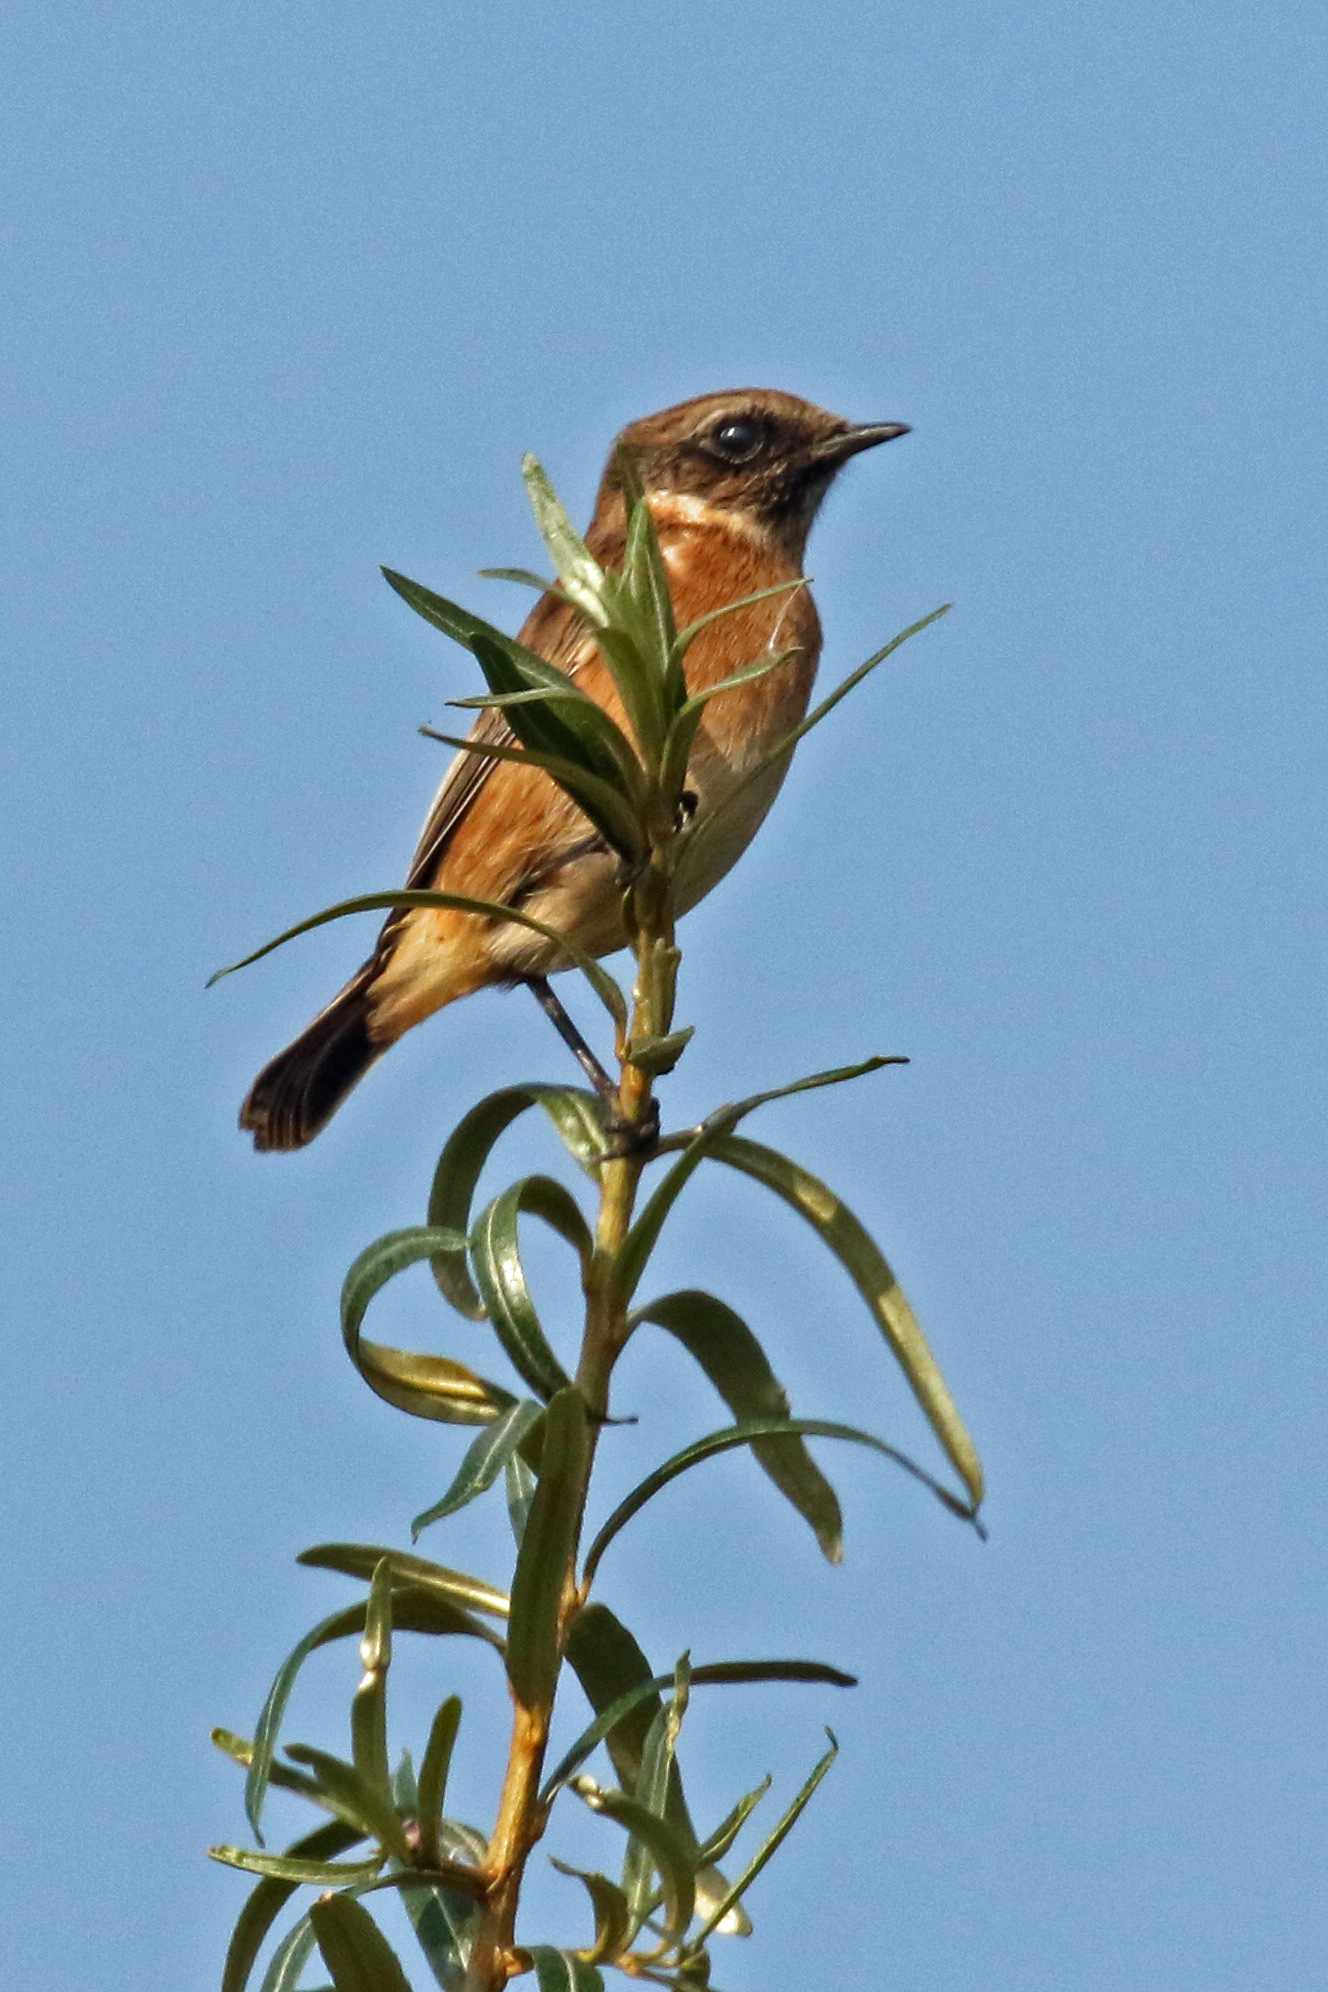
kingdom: Animalia
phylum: Chordata
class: Aves
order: Passeriformes
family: Muscicapidae
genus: Saxicola
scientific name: Saxicola rubicola
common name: European stonechat
